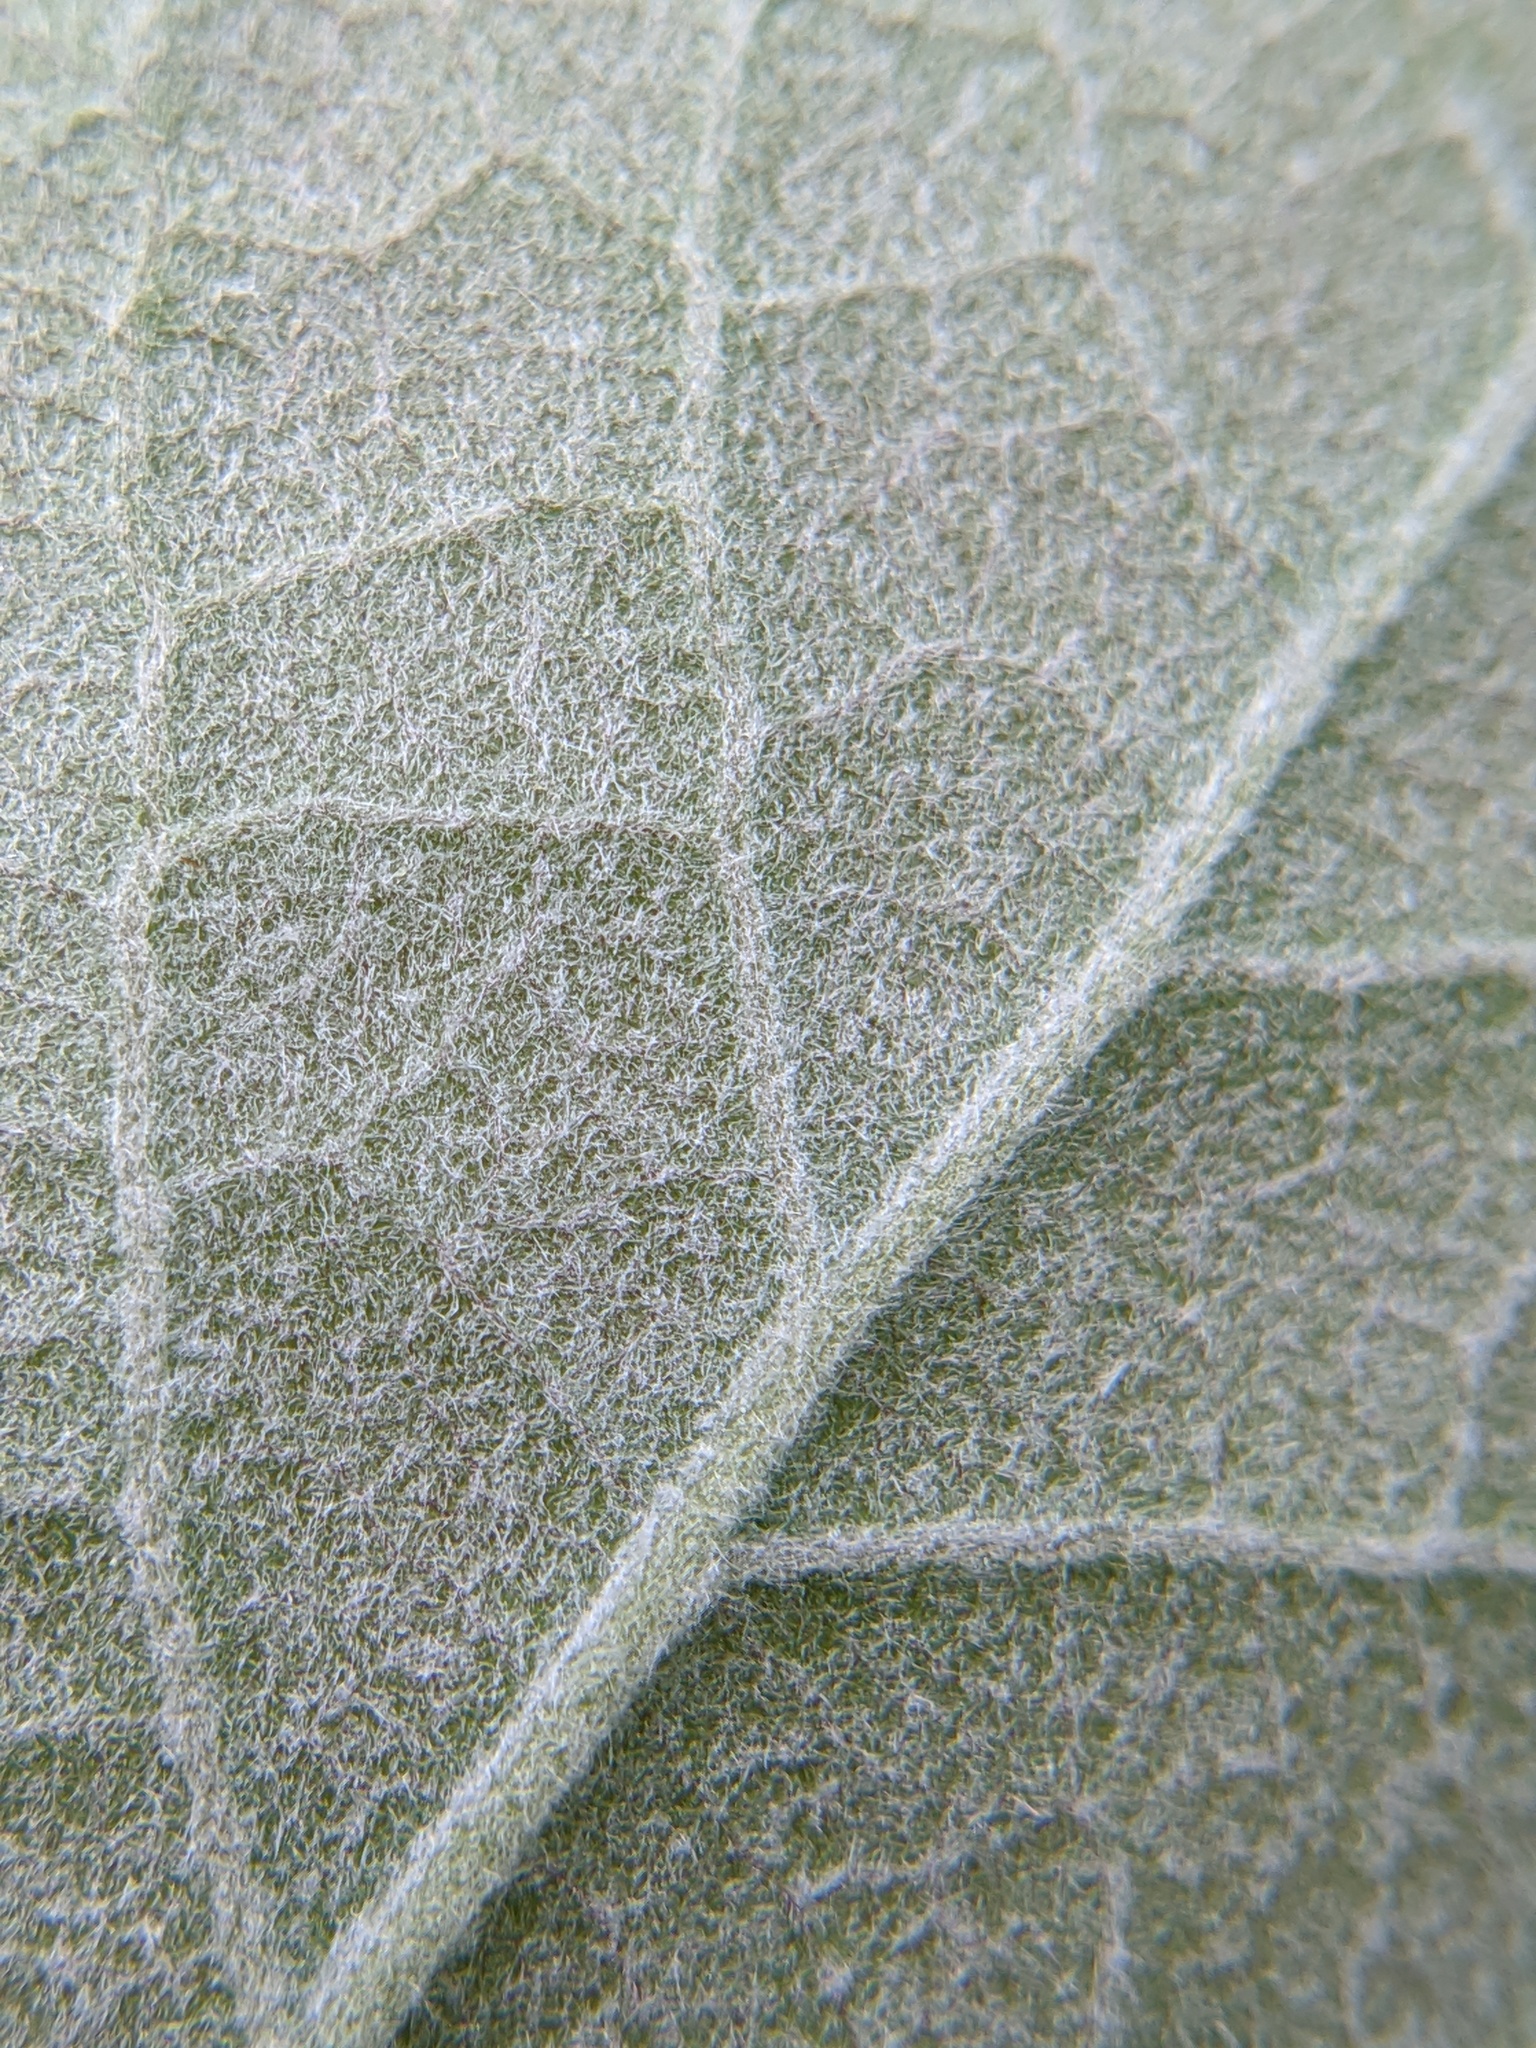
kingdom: Plantae
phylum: Tracheophyta
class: Magnoliopsida
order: Malpighiales
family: Salicaceae
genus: Populus
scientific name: Populus grandidentata
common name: Bigtooth aspen
